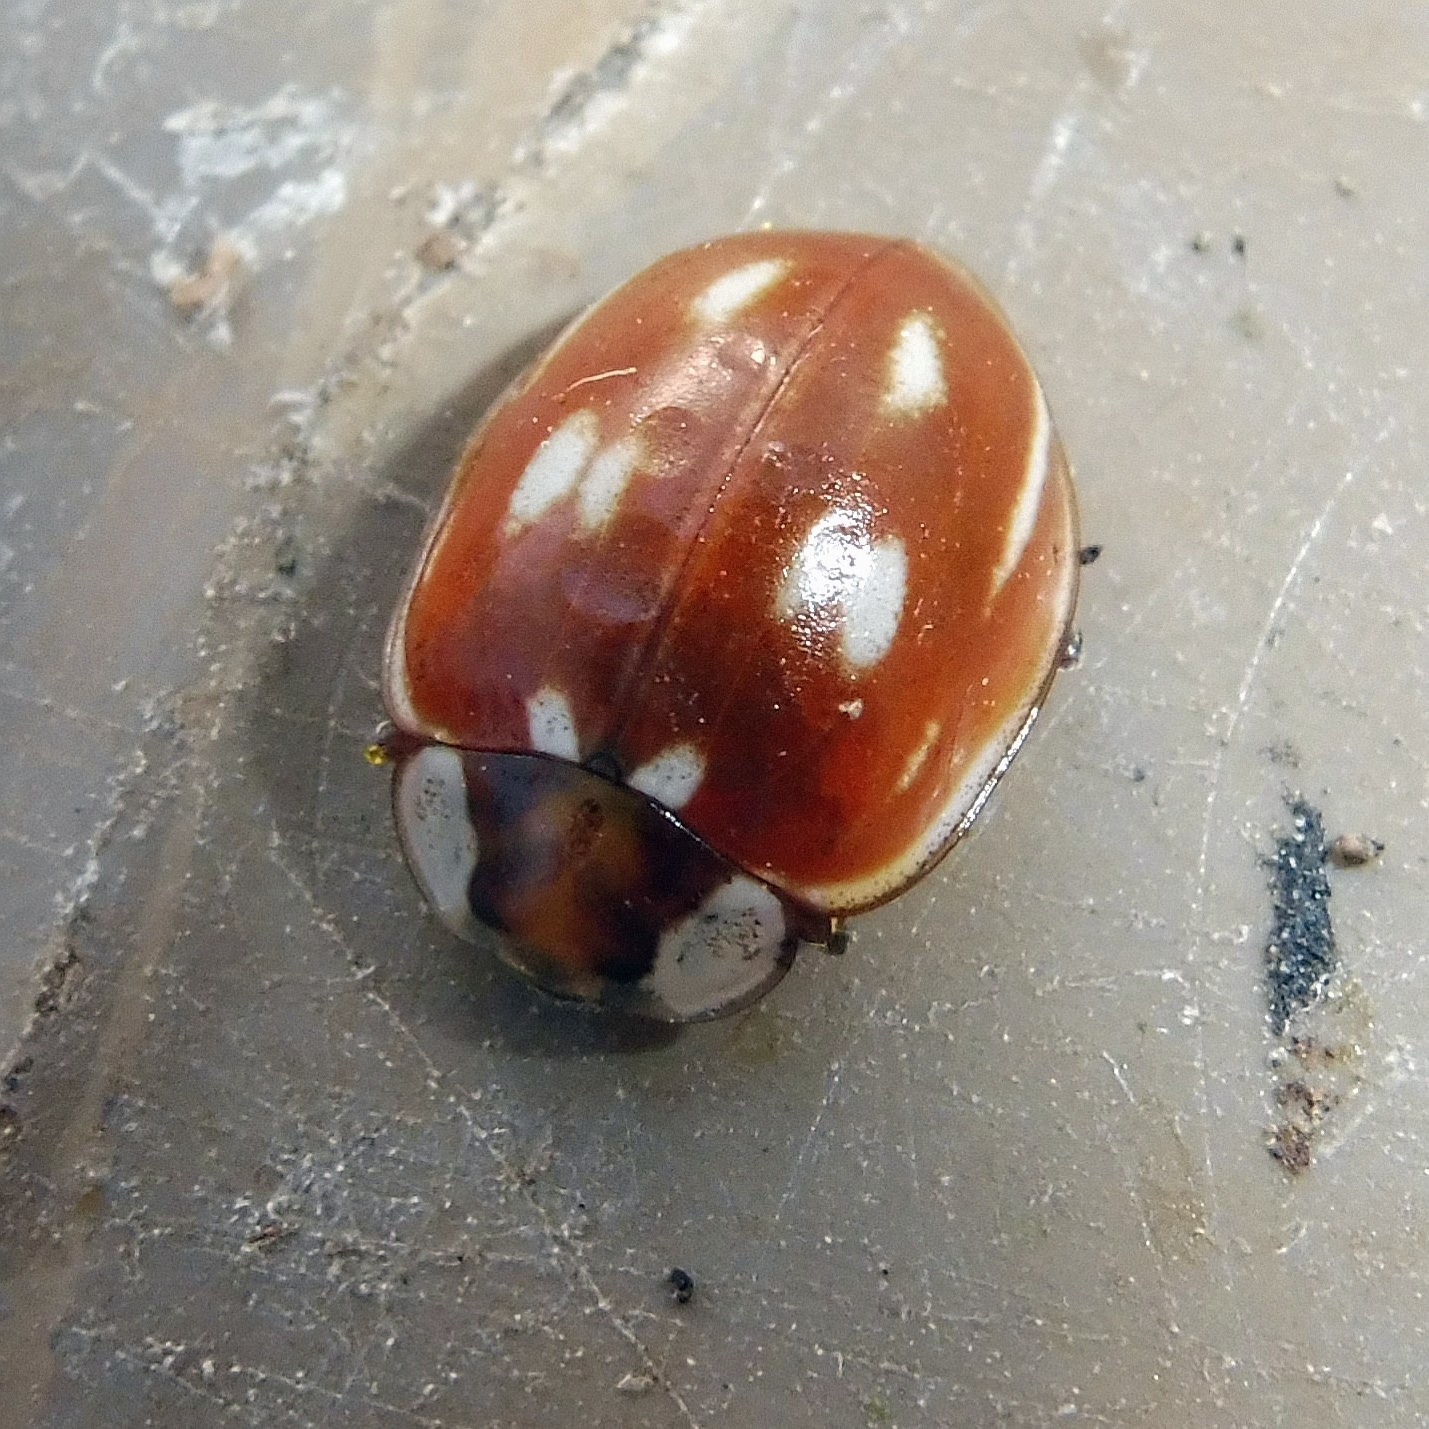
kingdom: Animalia
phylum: Arthropoda
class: Insecta
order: Coleoptera
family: Coccinellidae
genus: Myzia
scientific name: Myzia oblongoguttata
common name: Striped ladybird
